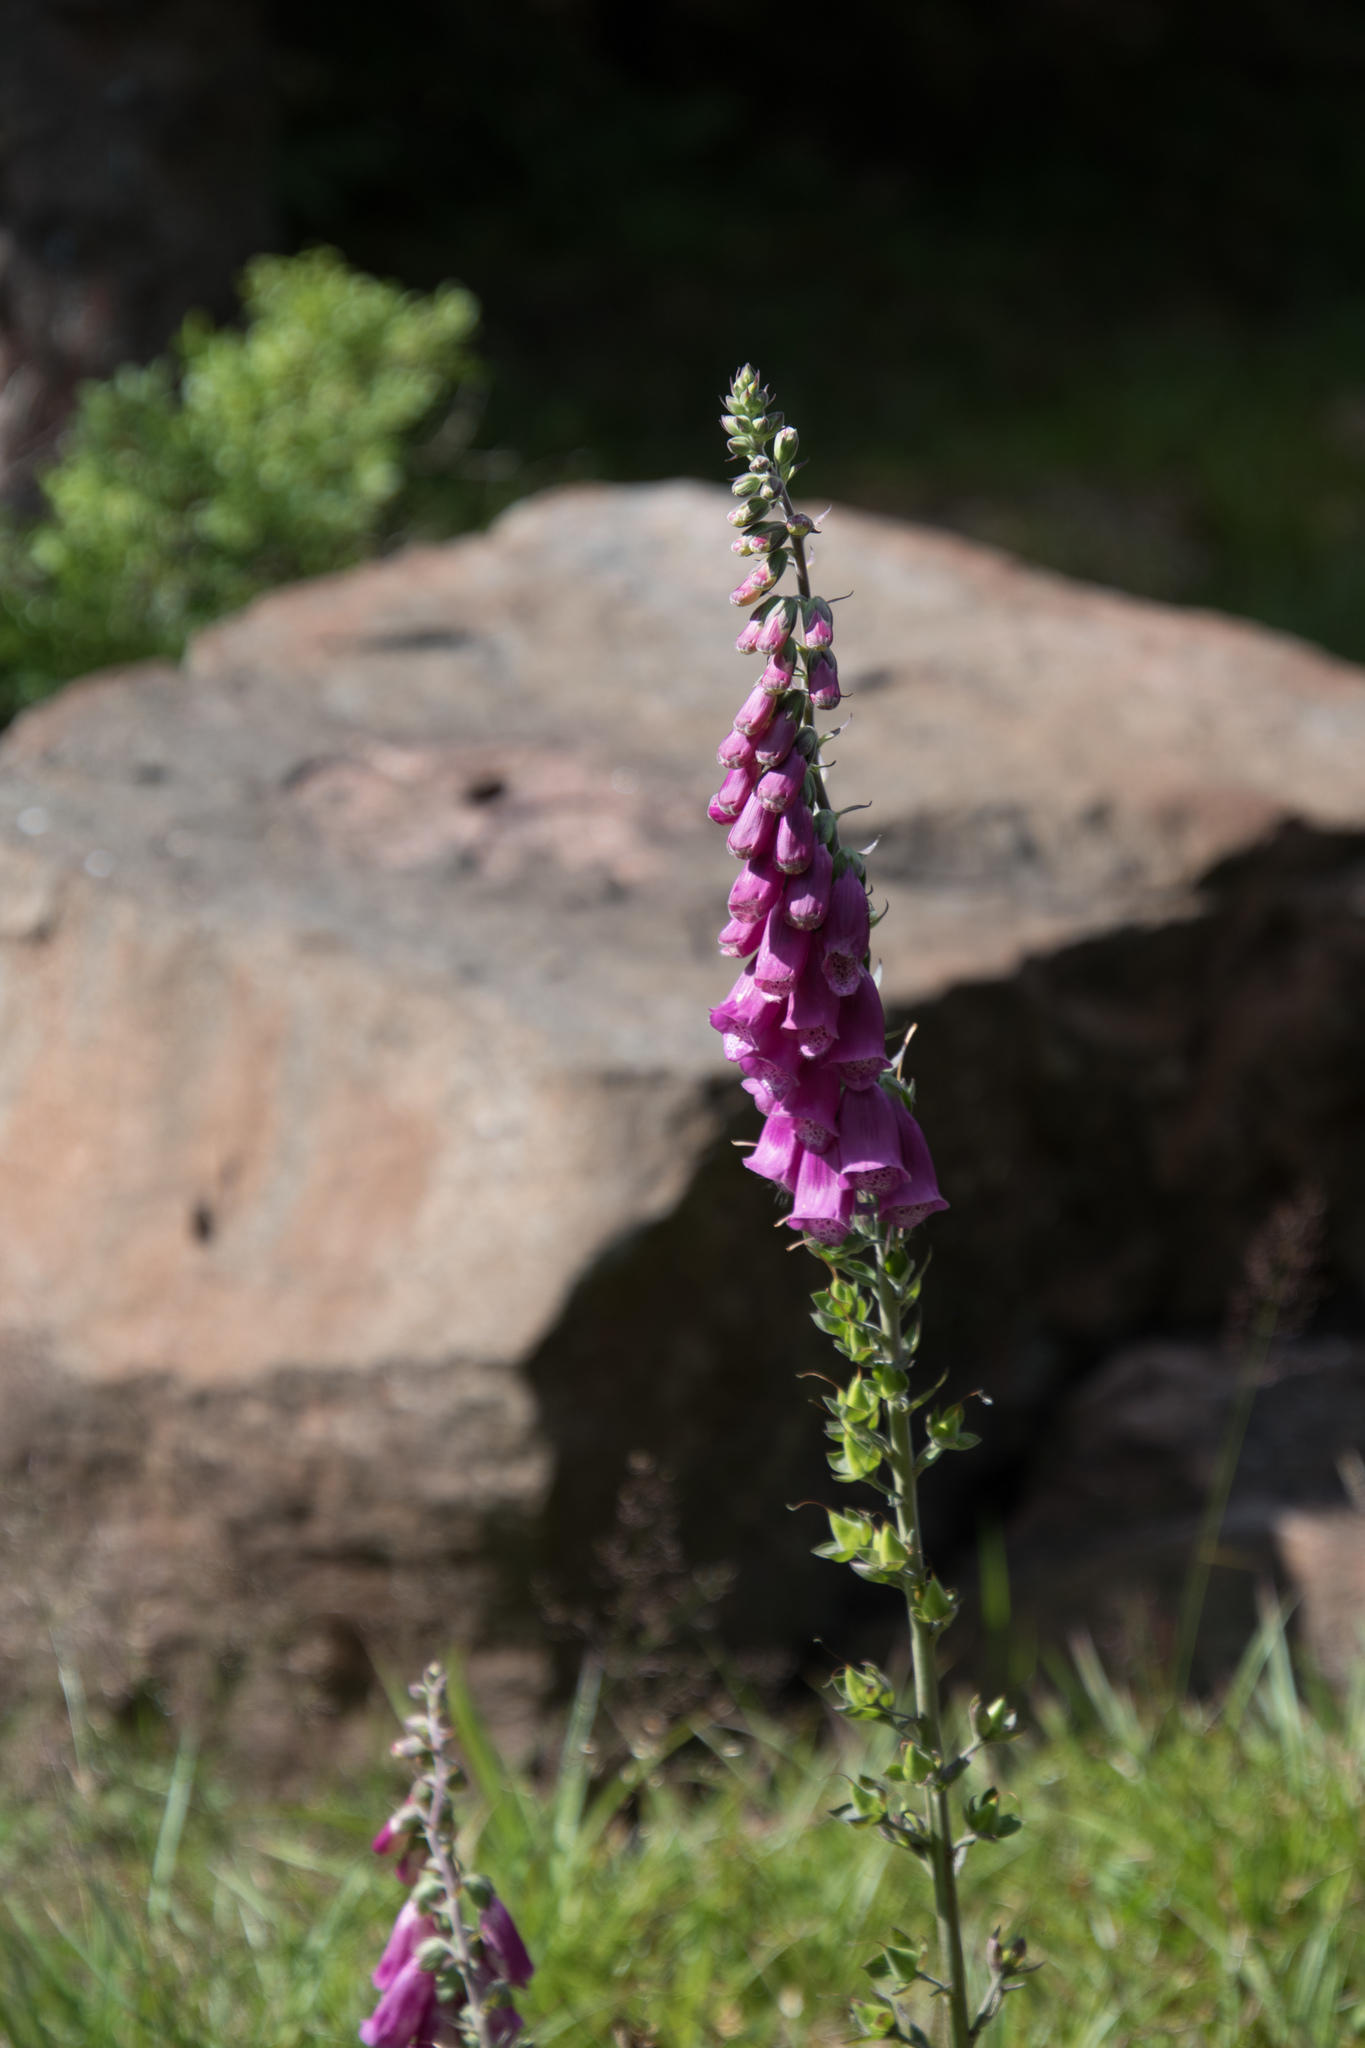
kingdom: Plantae
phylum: Tracheophyta
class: Magnoliopsida
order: Lamiales
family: Plantaginaceae
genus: Digitalis
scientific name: Digitalis purpurea
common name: Foxglove
